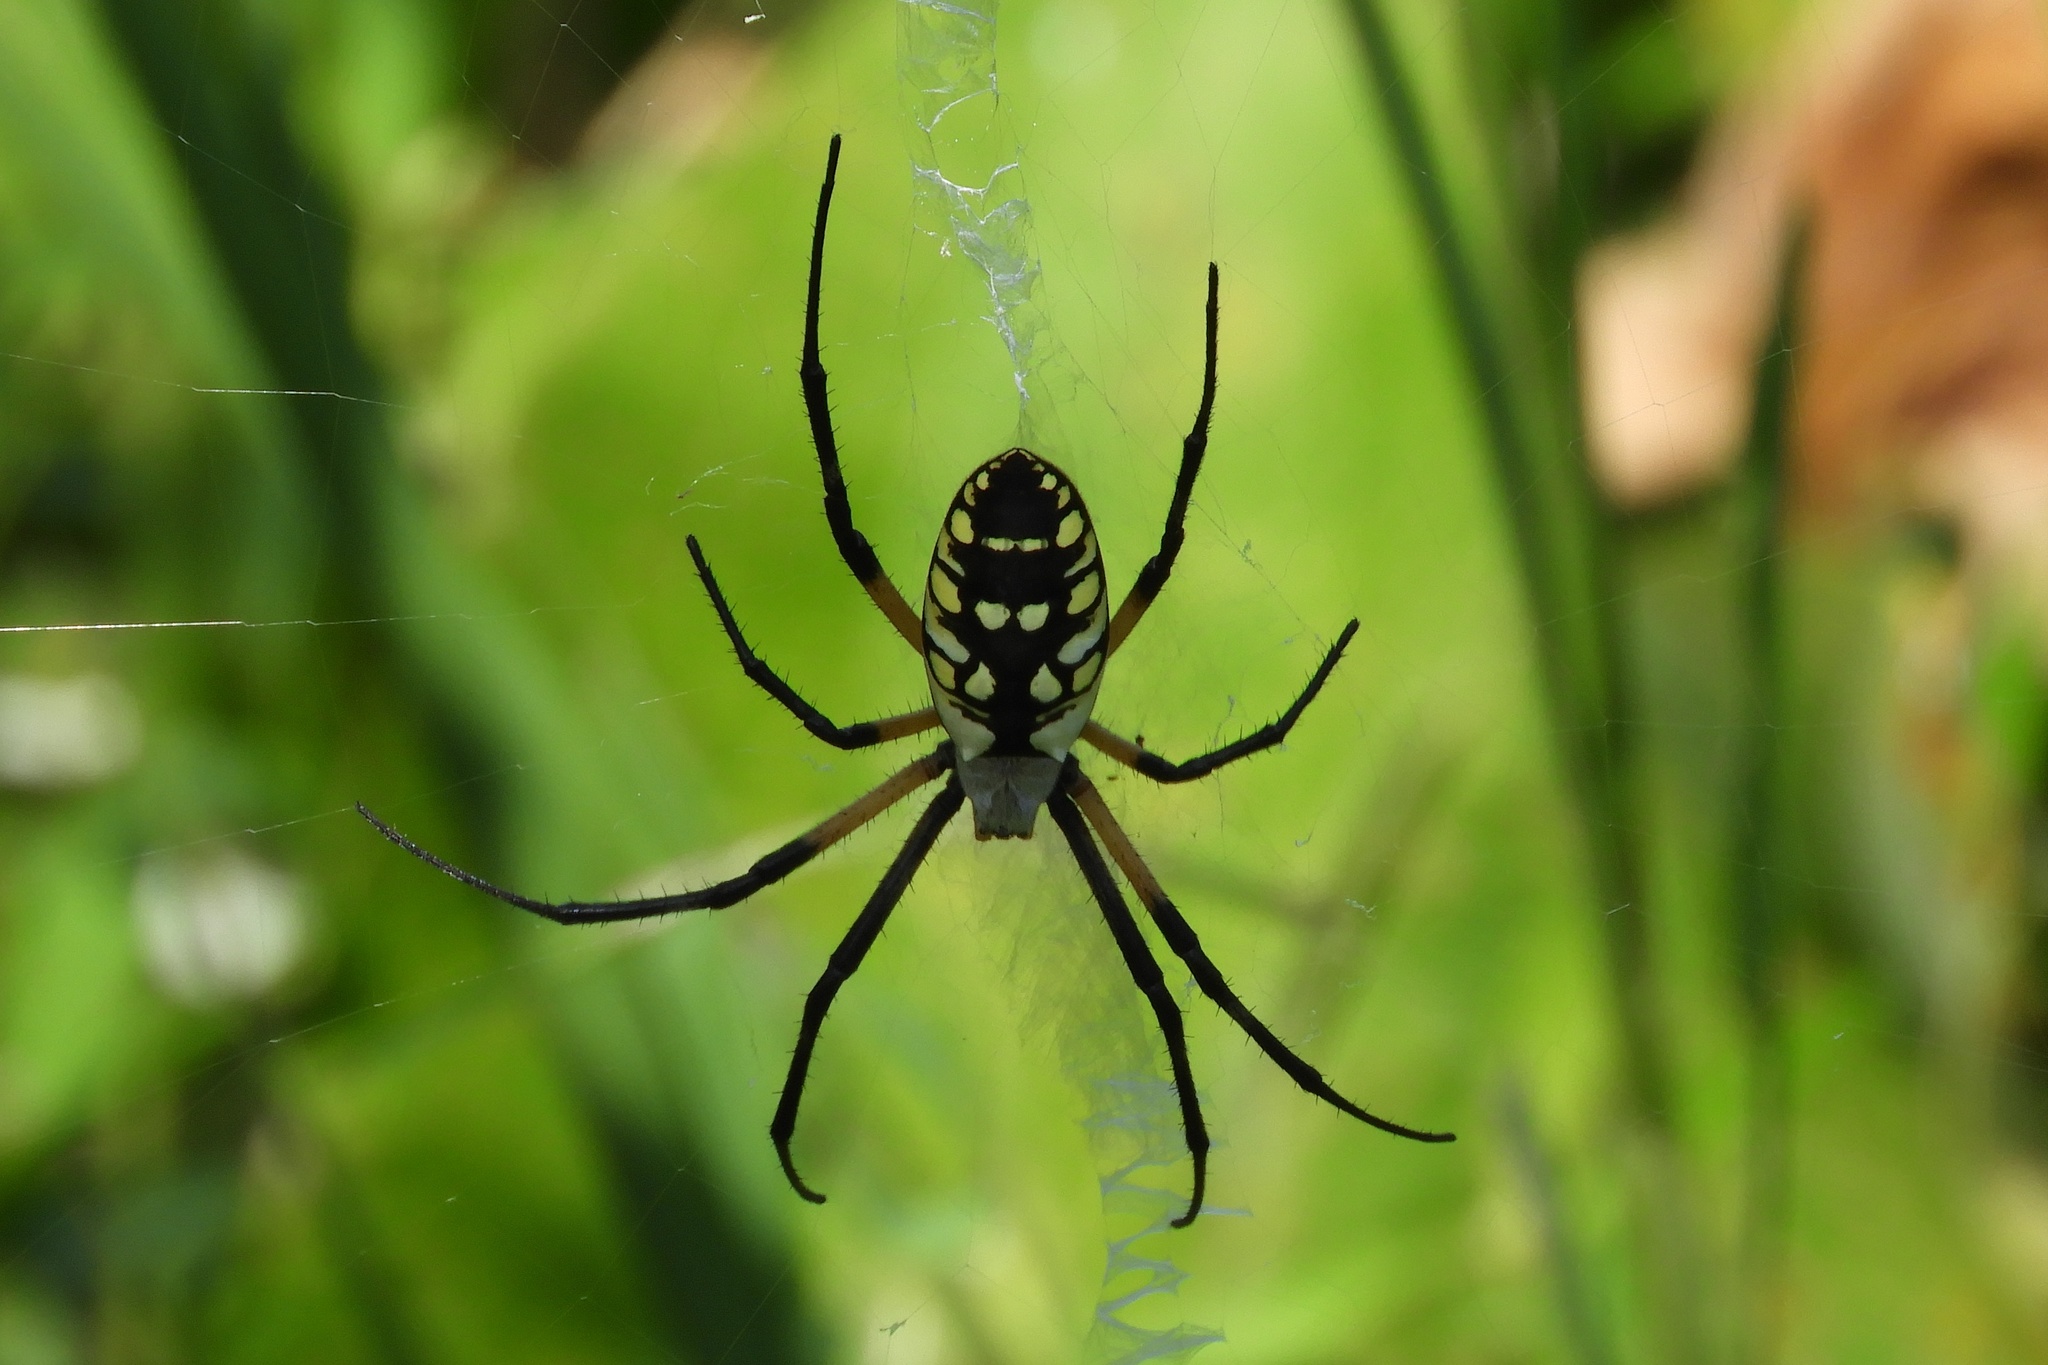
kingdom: Animalia
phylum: Arthropoda
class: Arachnida
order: Araneae
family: Araneidae
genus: Argiope
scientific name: Argiope aurantia
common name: Orb weavers
